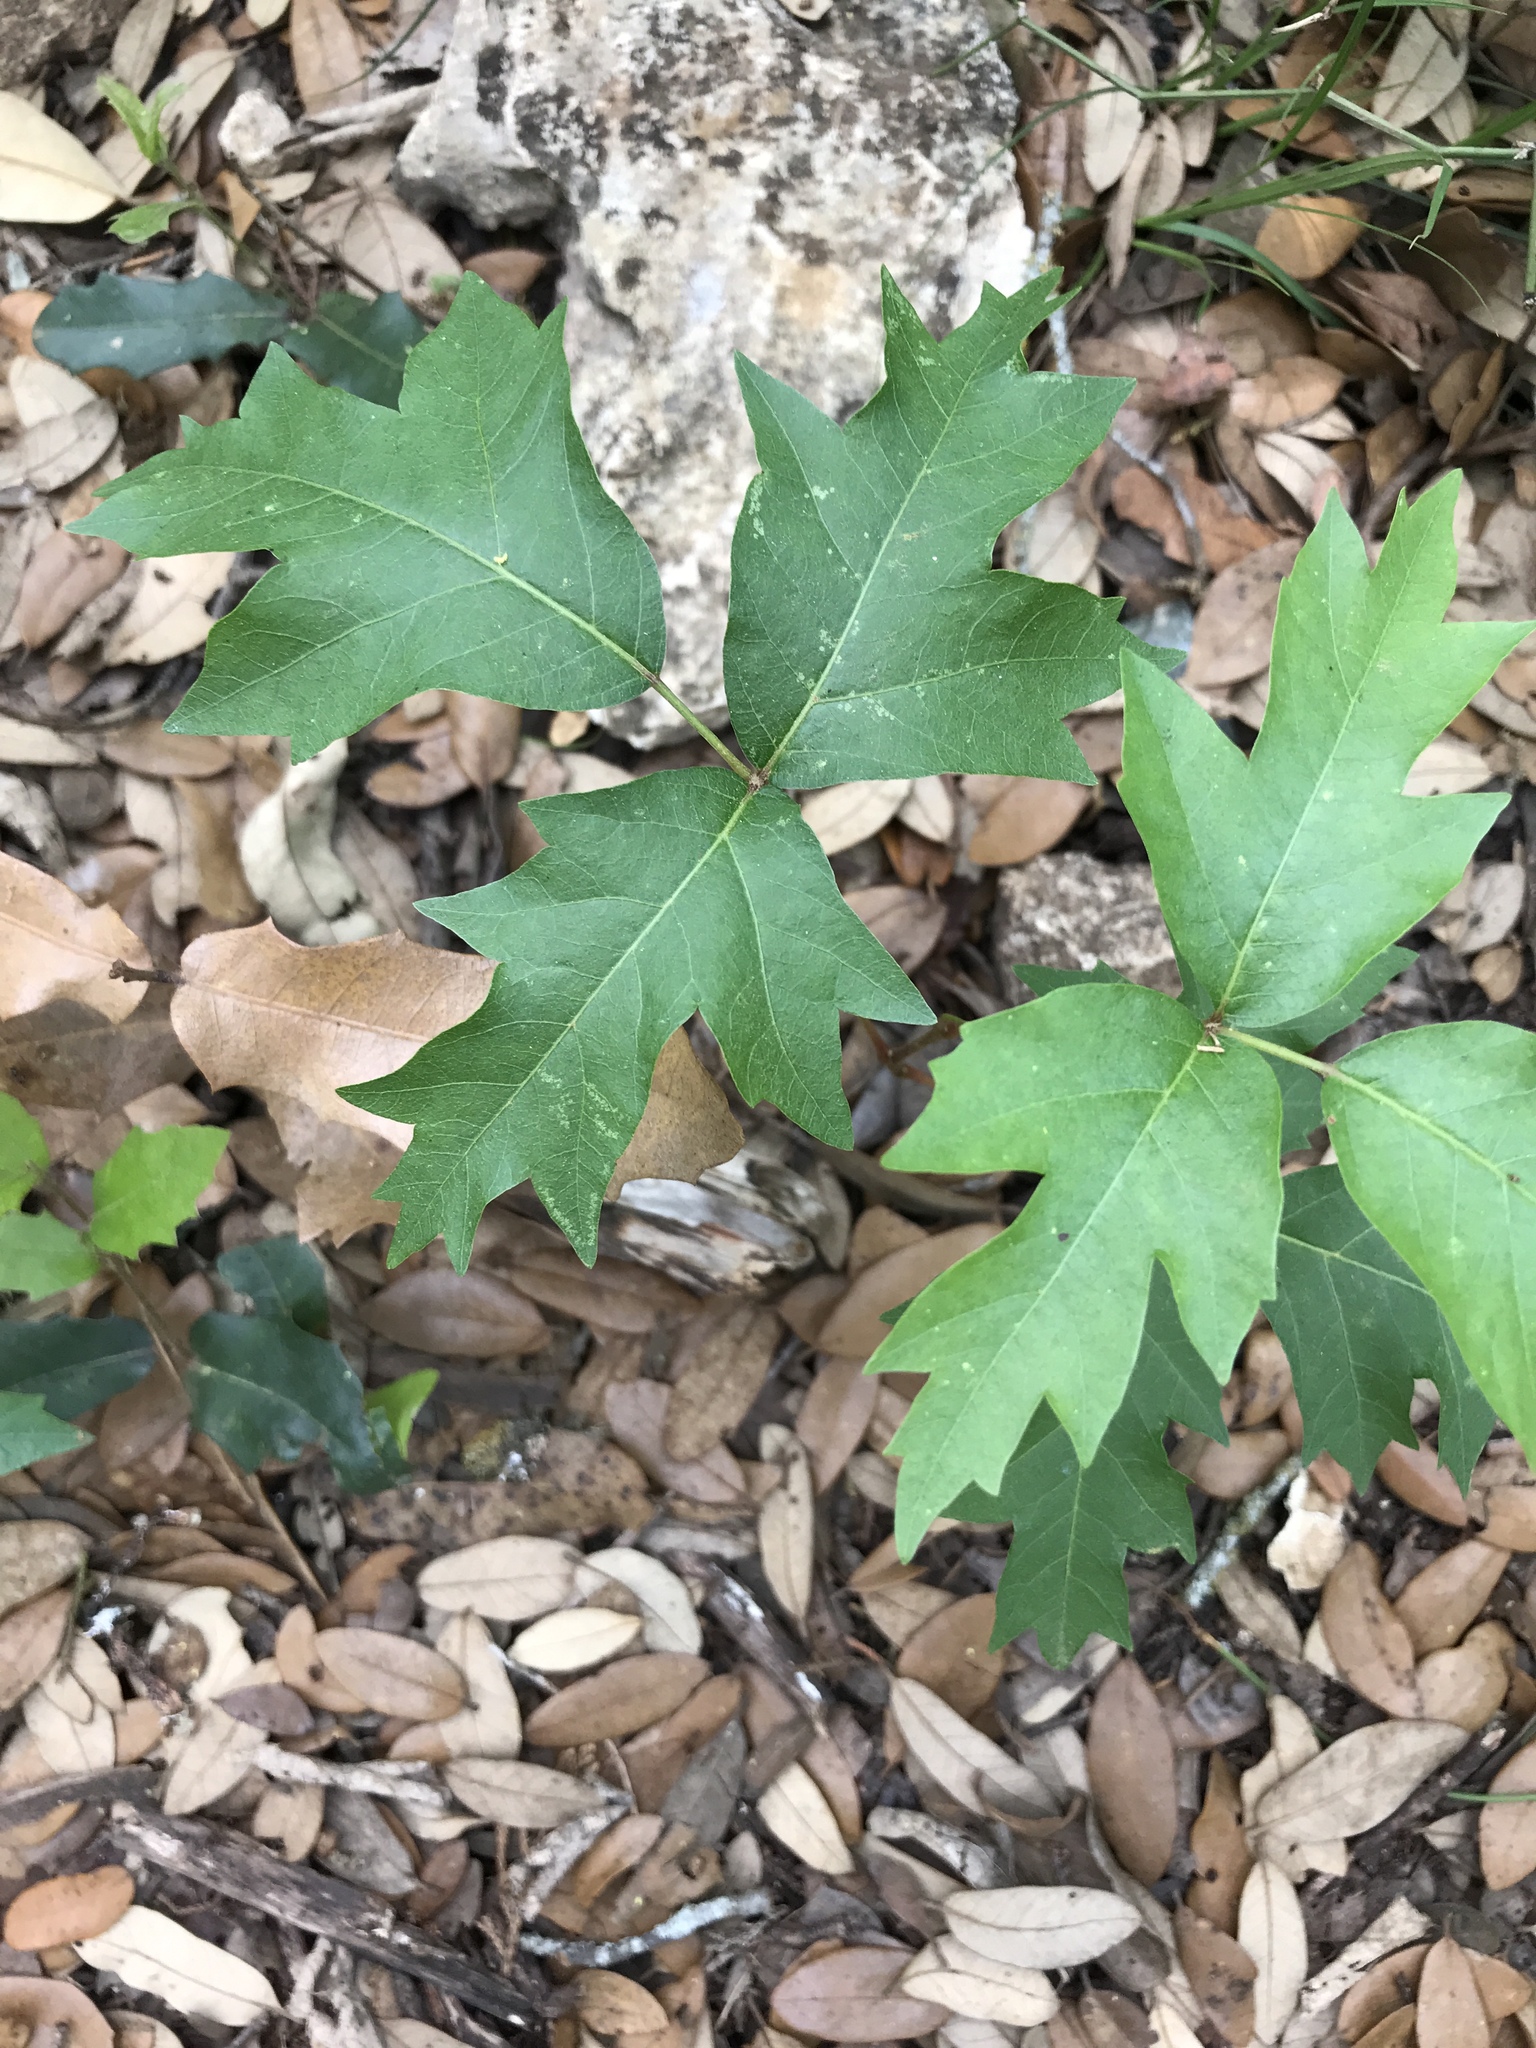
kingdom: Plantae
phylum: Tracheophyta
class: Magnoliopsida
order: Sapindales
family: Anacardiaceae
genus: Toxicodendron
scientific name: Toxicodendron radicans
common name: Poison ivy
